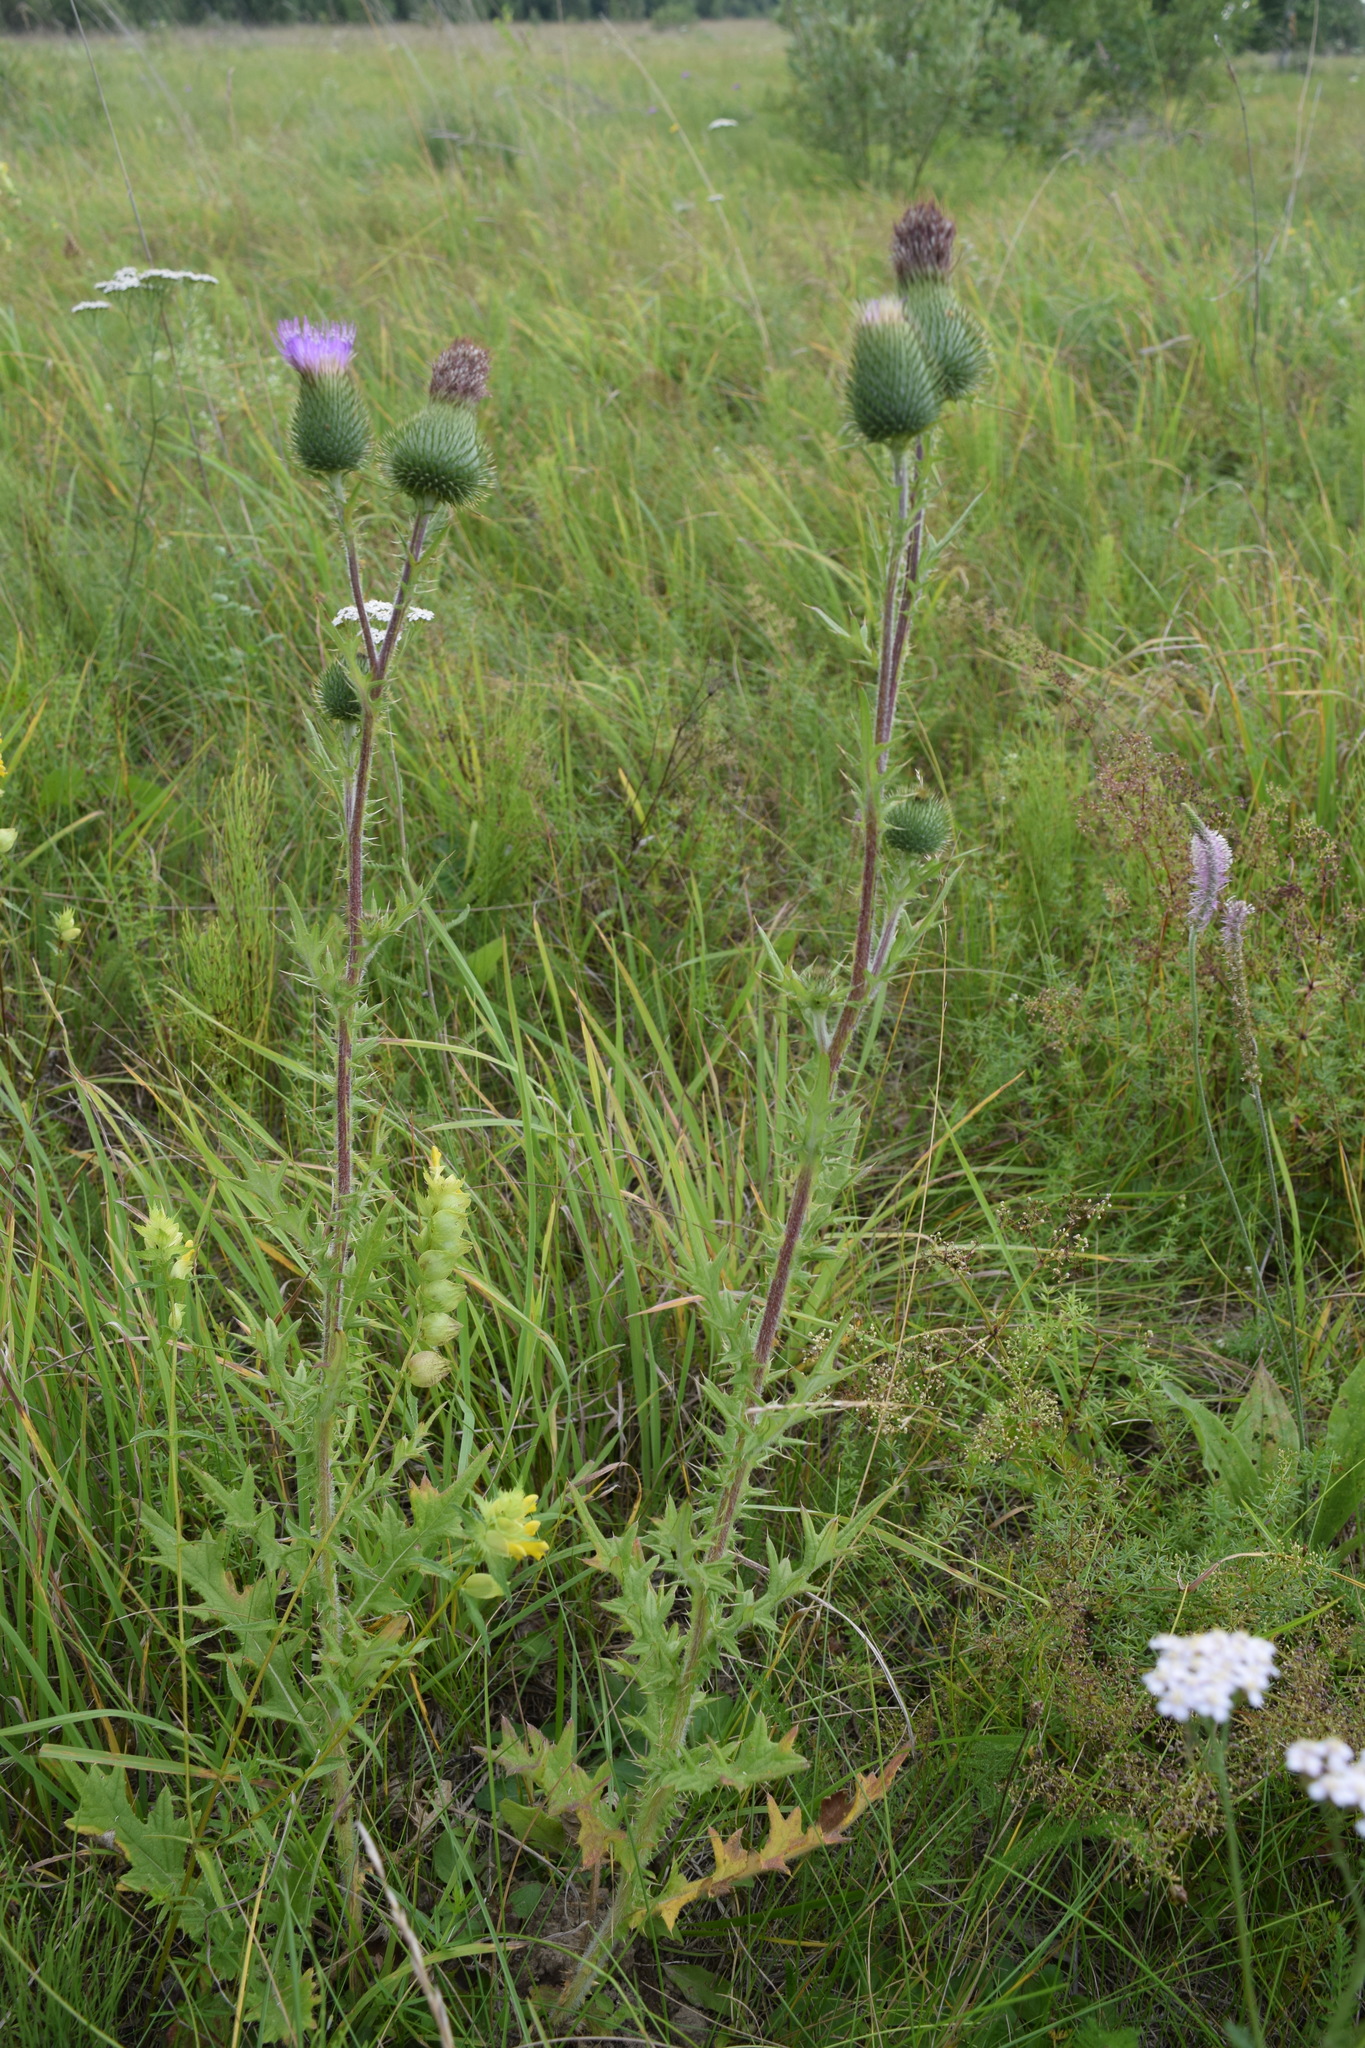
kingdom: Plantae
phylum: Tracheophyta
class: Magnoliopsida
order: Asterales
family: Asteraceae
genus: Cirsium
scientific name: Cirsium vulgare
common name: Bull thistle
